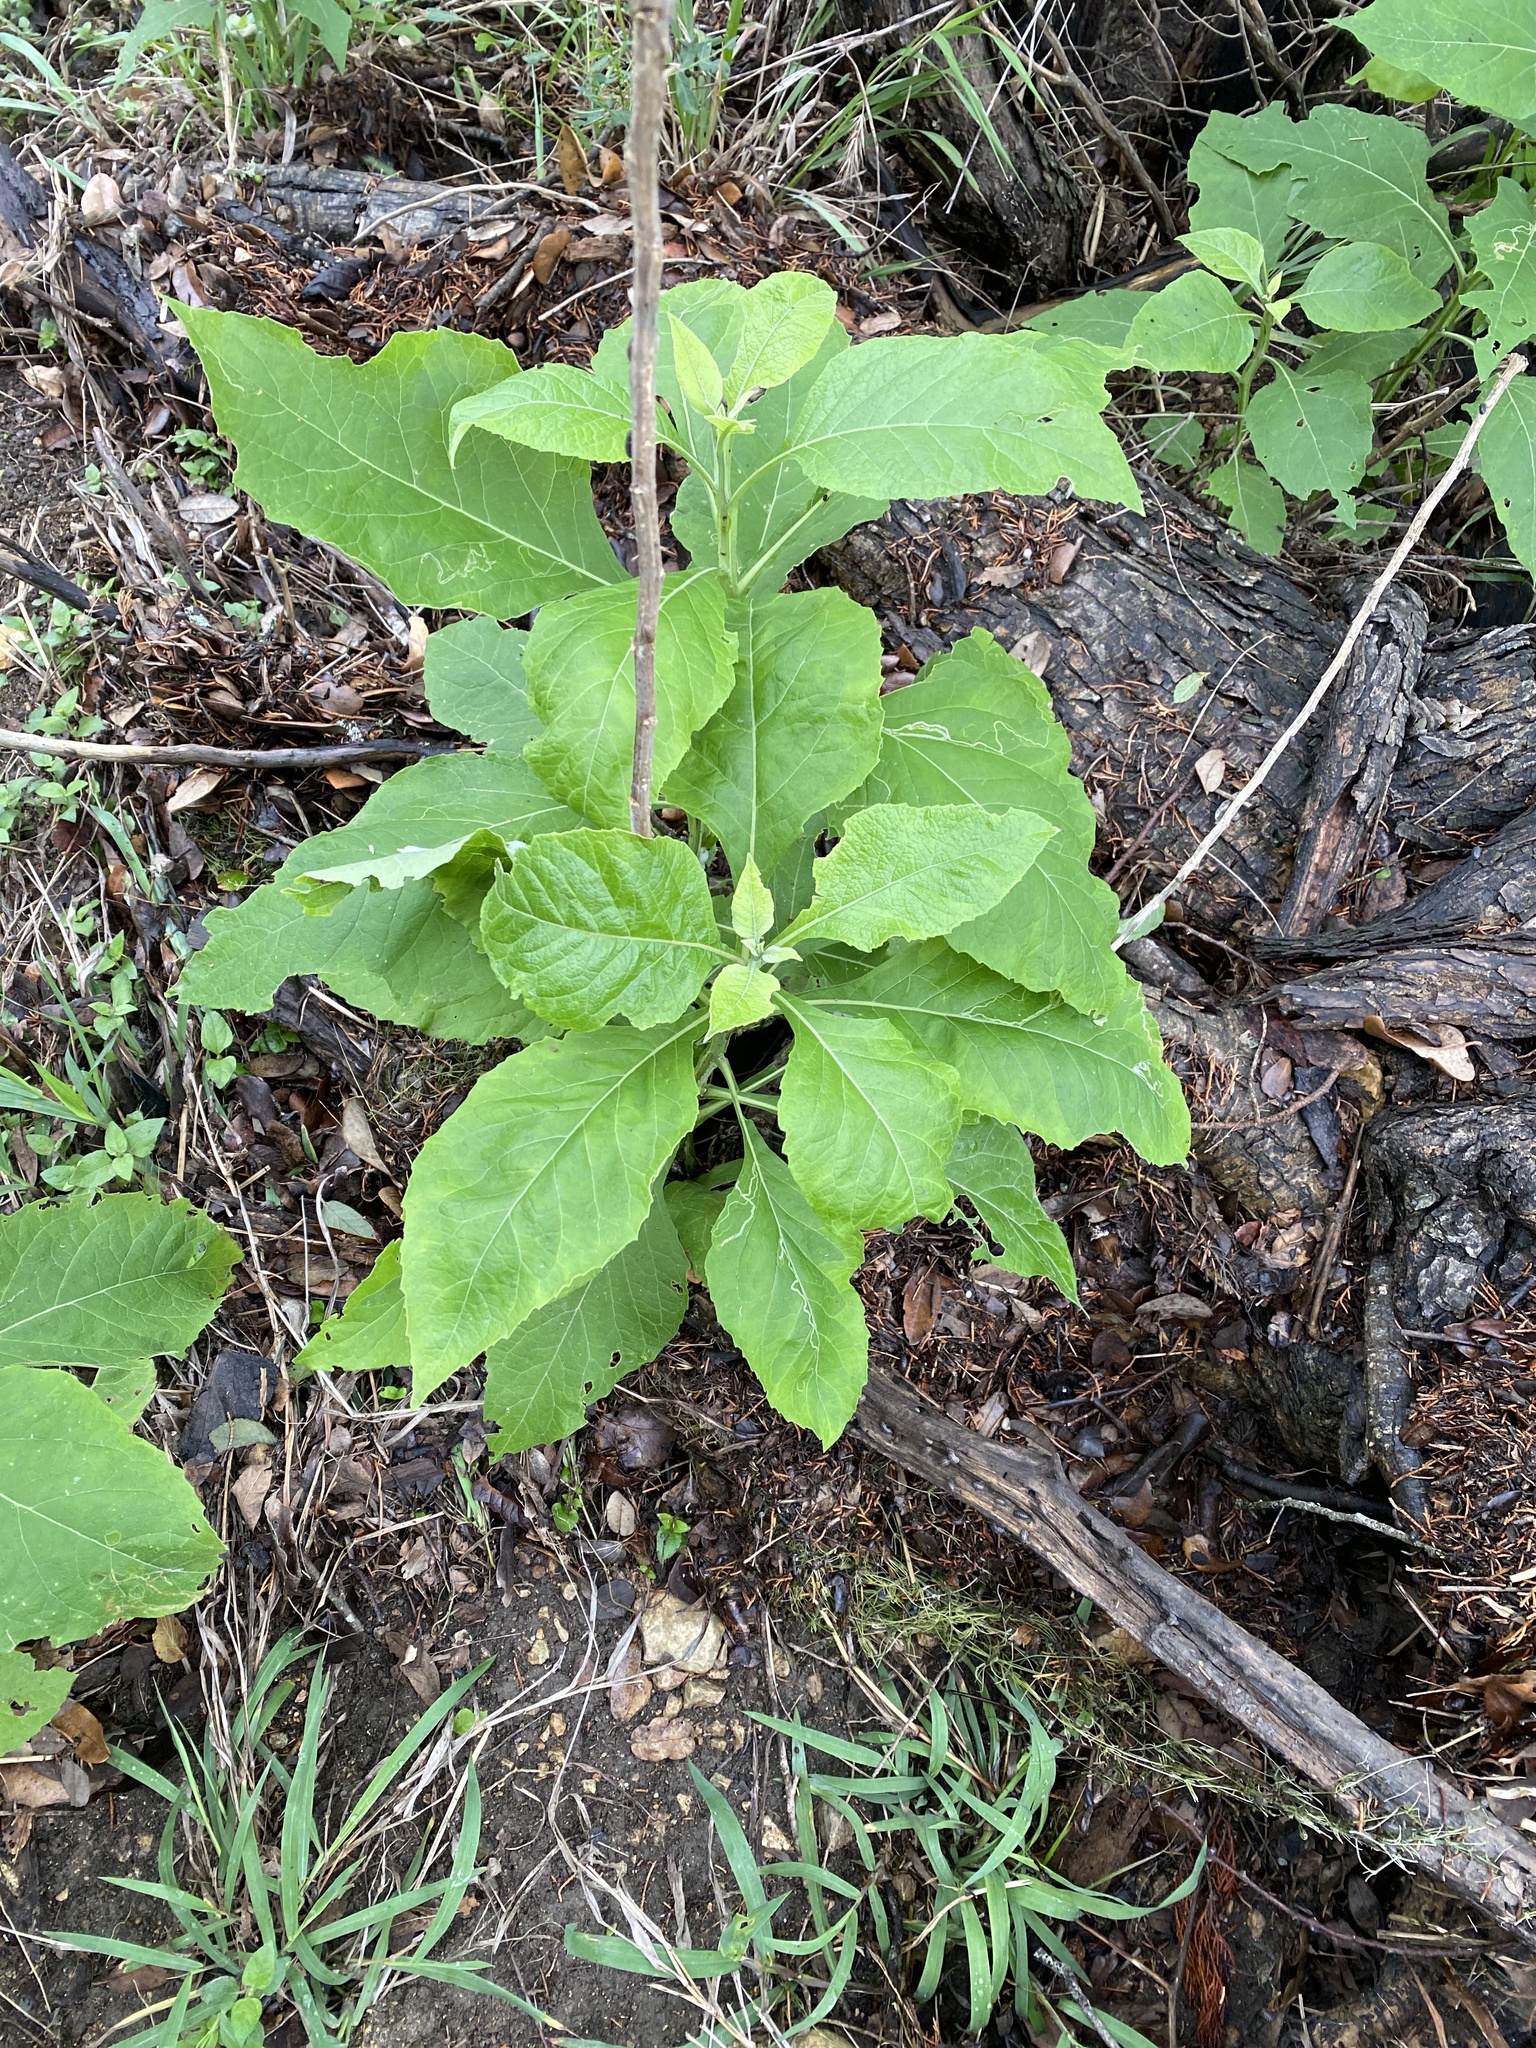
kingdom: Plantae
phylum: Tracheophyta
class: Magnoliopsida
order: Asterales
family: Asteraceae
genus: Verbesina
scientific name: Verbesina virginica
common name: Frostweed
